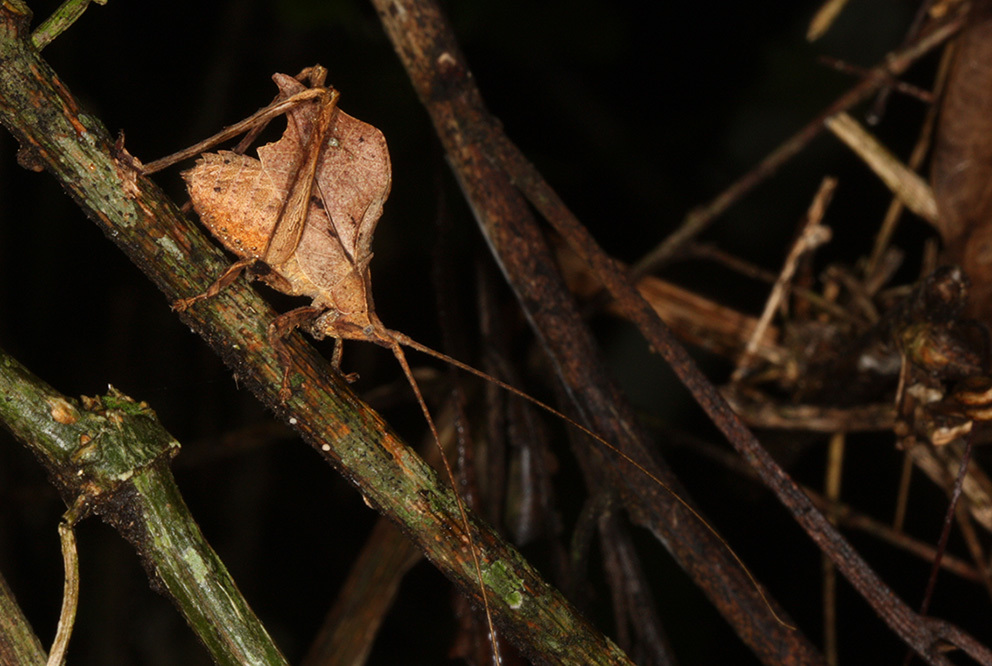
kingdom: Animalia
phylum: Arthropoda
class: Insecta
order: Orthoptera
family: Tettigoniidae
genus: Typophyllum
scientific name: Typophyllum inflatum
